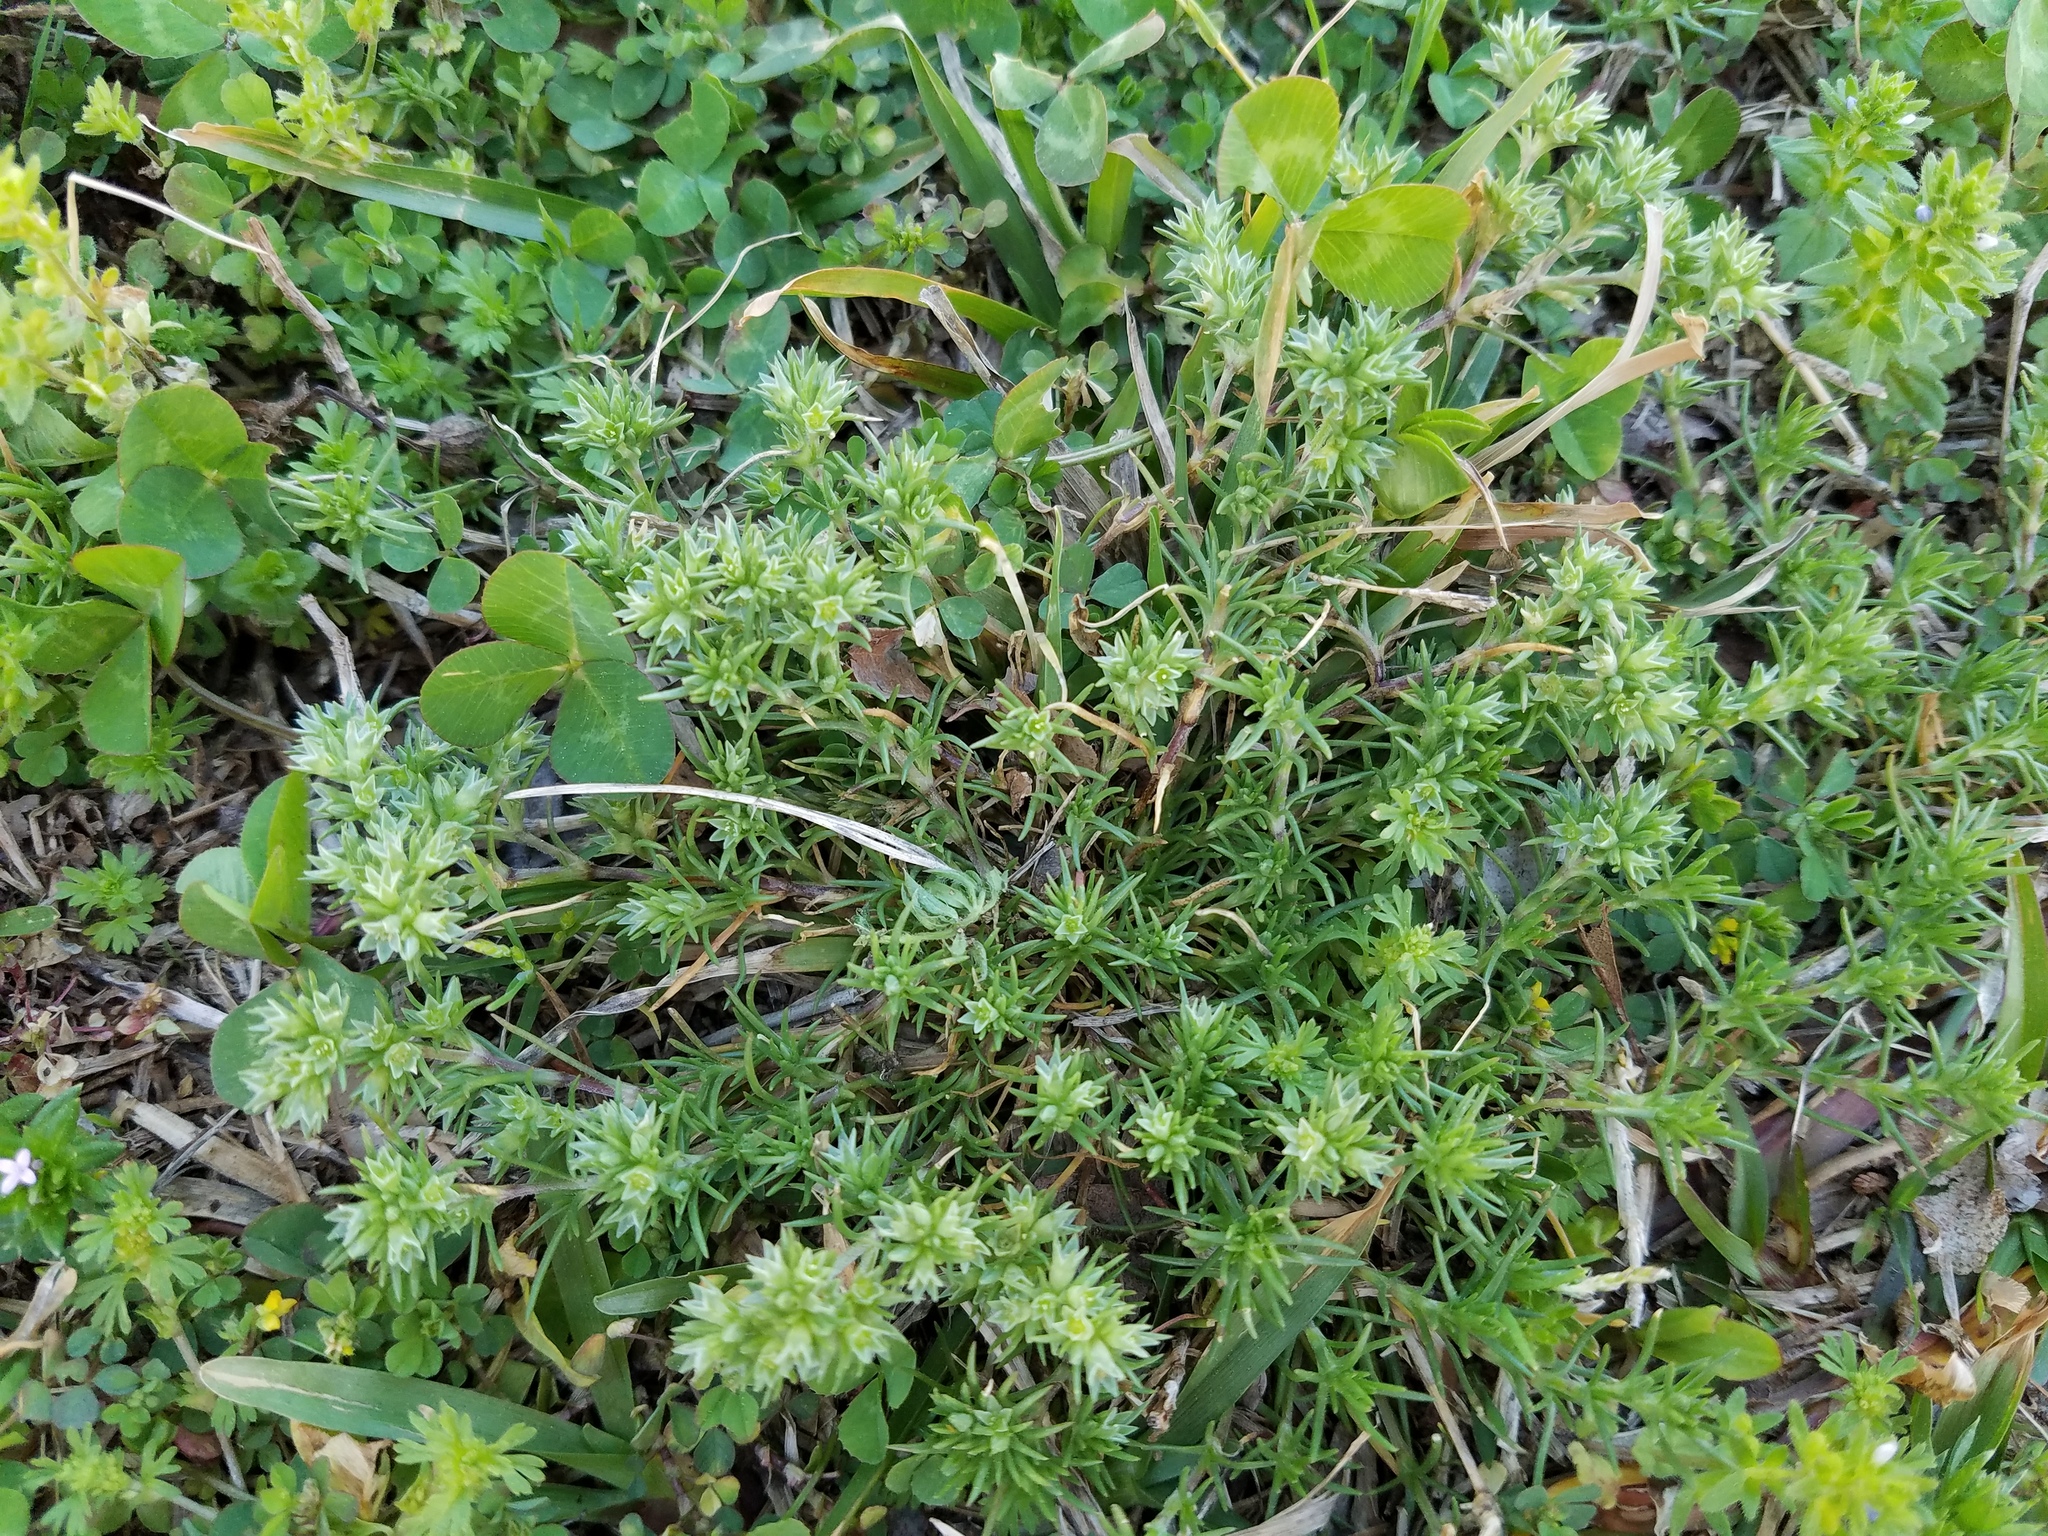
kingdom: Plantae
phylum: Tracheophyta
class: Magnoliopsida
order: Caryophyllales
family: Caryophyllaceae
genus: Scleranthus
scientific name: Scleranthus annuus
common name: Annual knawel
